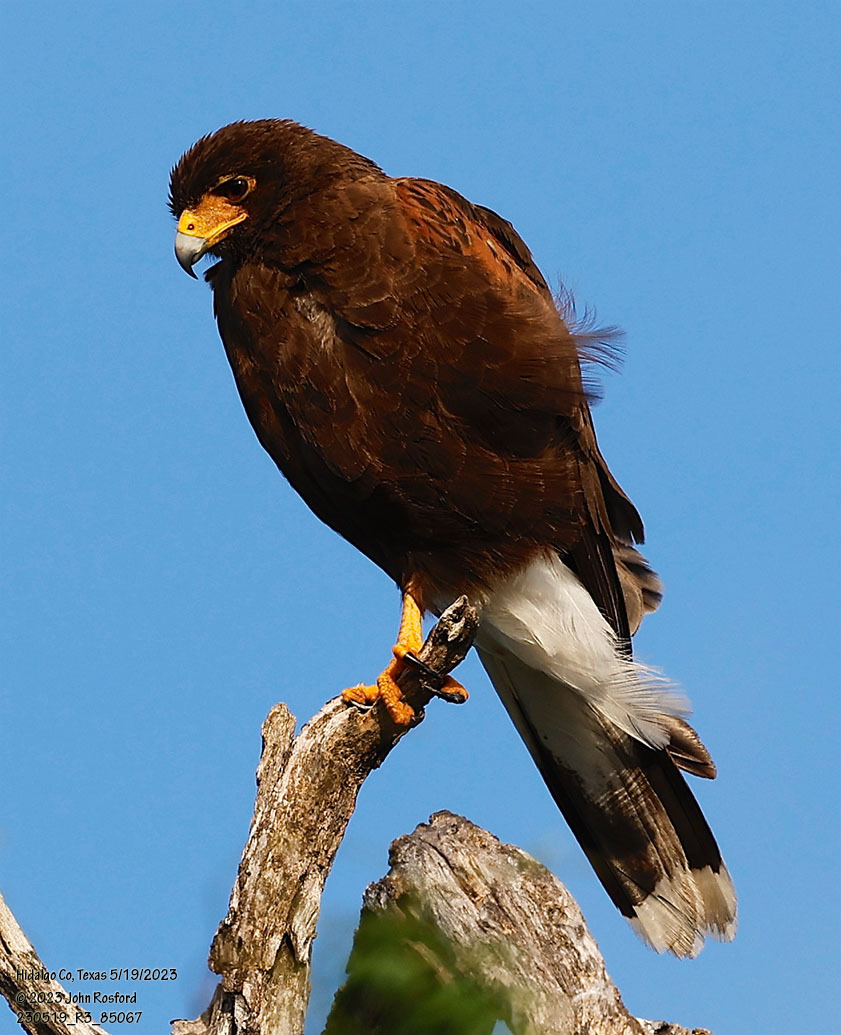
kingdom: Animalia
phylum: Chordata
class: Aves
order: Accipitriformes
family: Accipitridae
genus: Parabuteo
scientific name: Parabuteo unicinctus
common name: Harris's hawk
